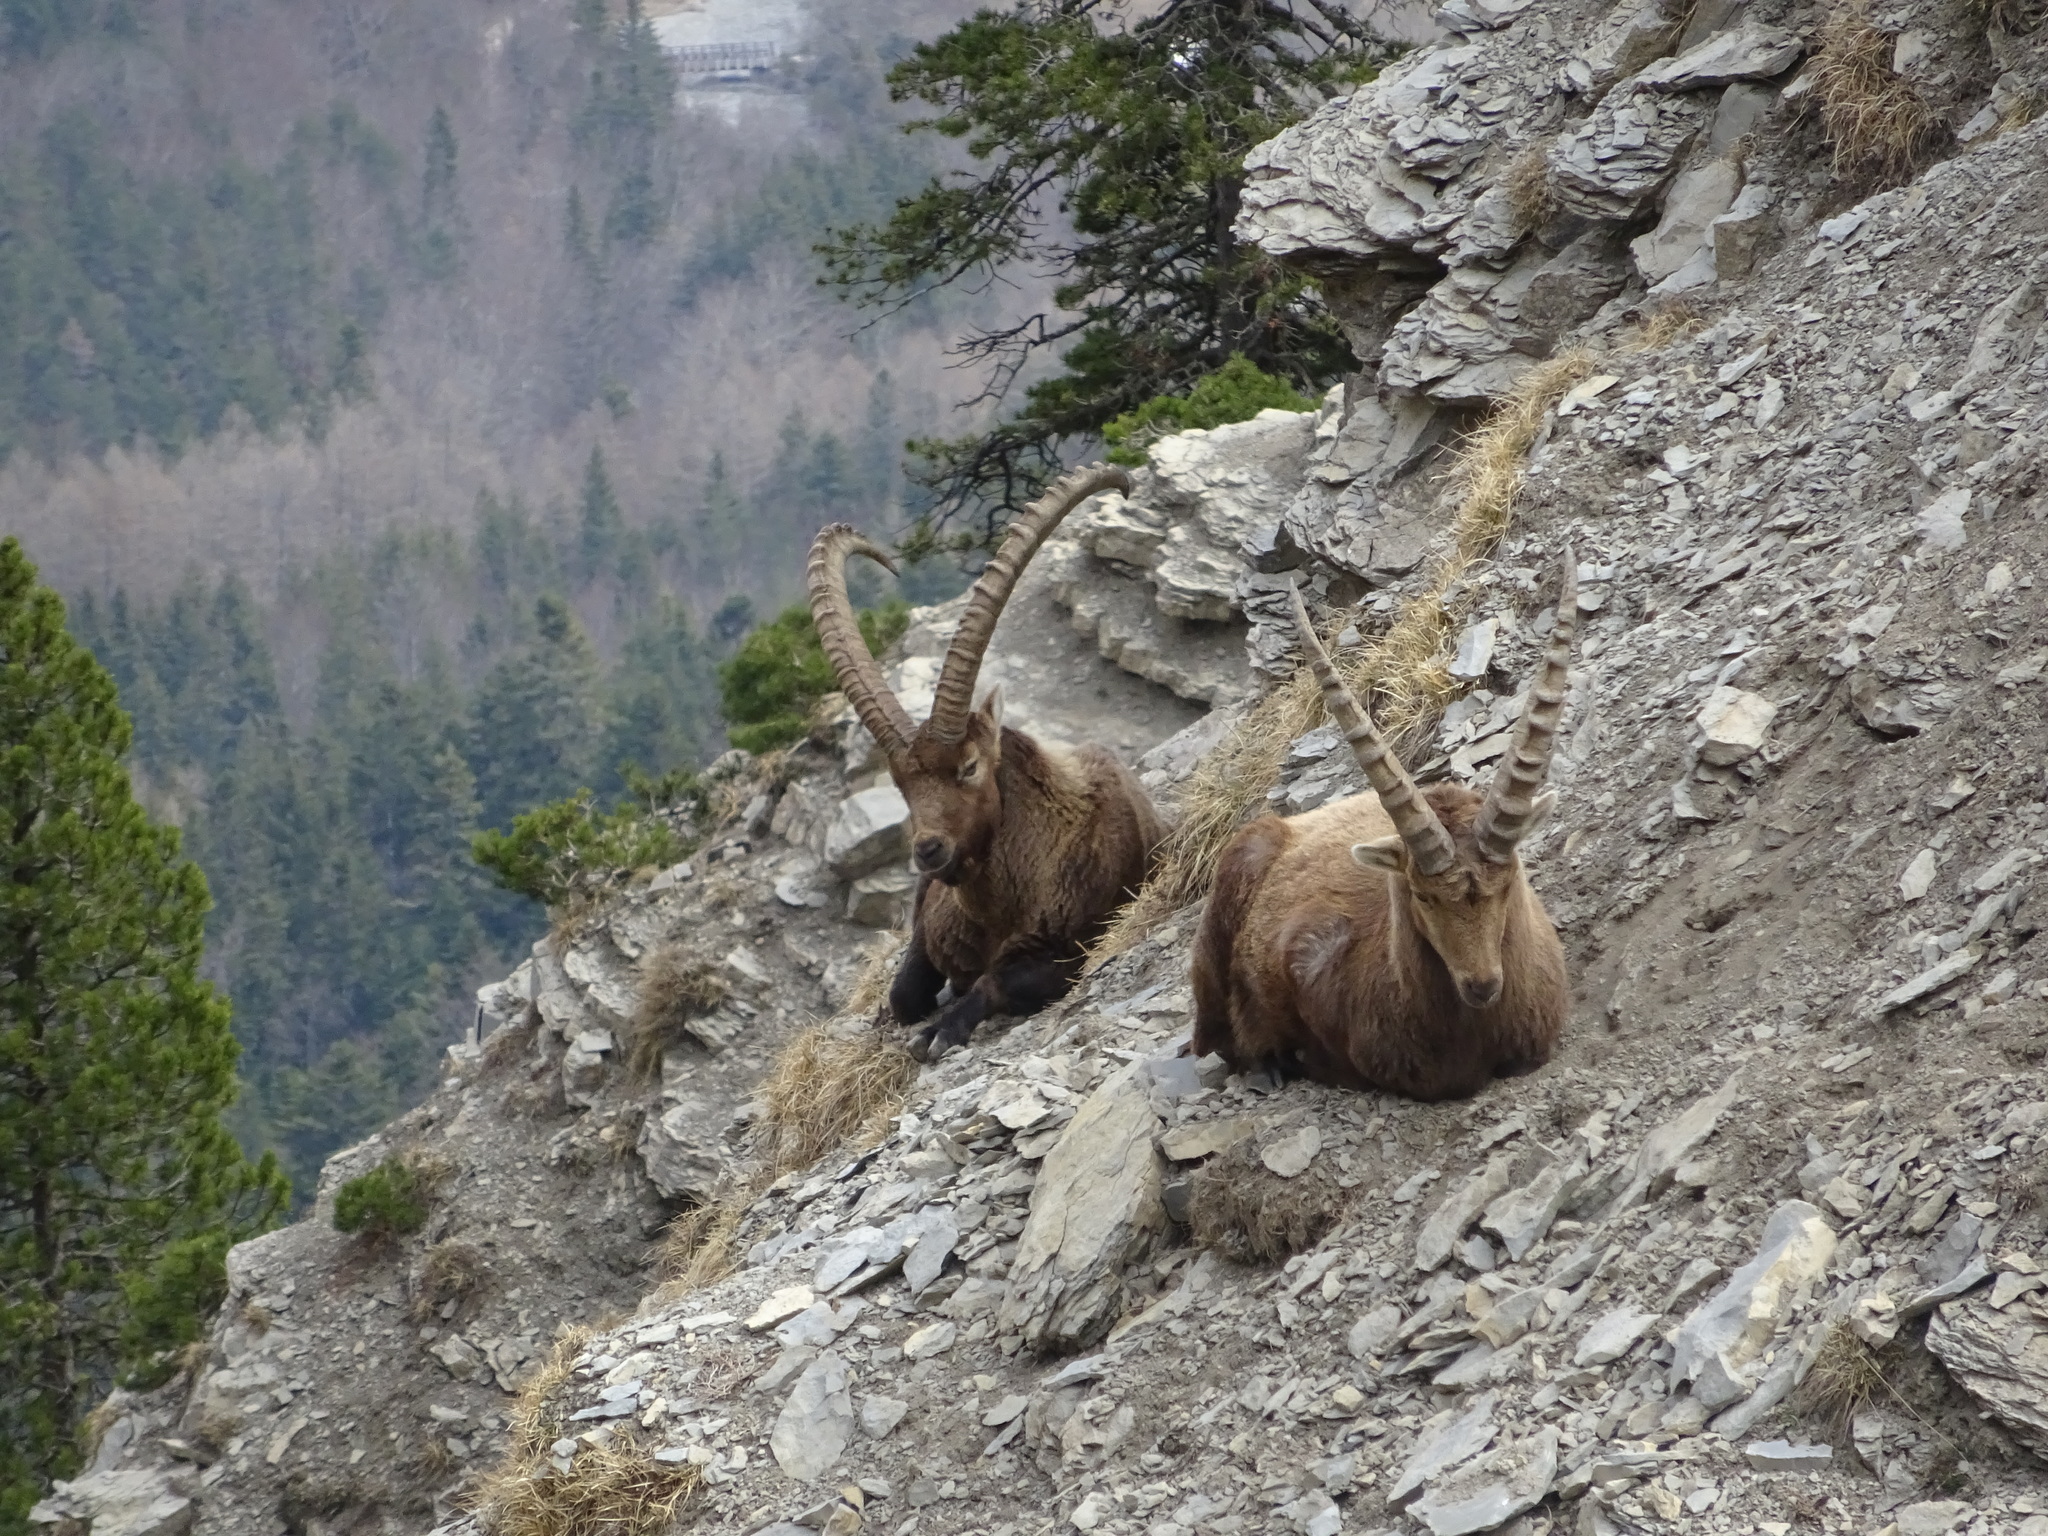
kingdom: Animalia
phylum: Chordata
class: Mammalia
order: Artiodactyla
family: Bovidae
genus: Capra
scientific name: Capra ibex
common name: Alpine ibex
